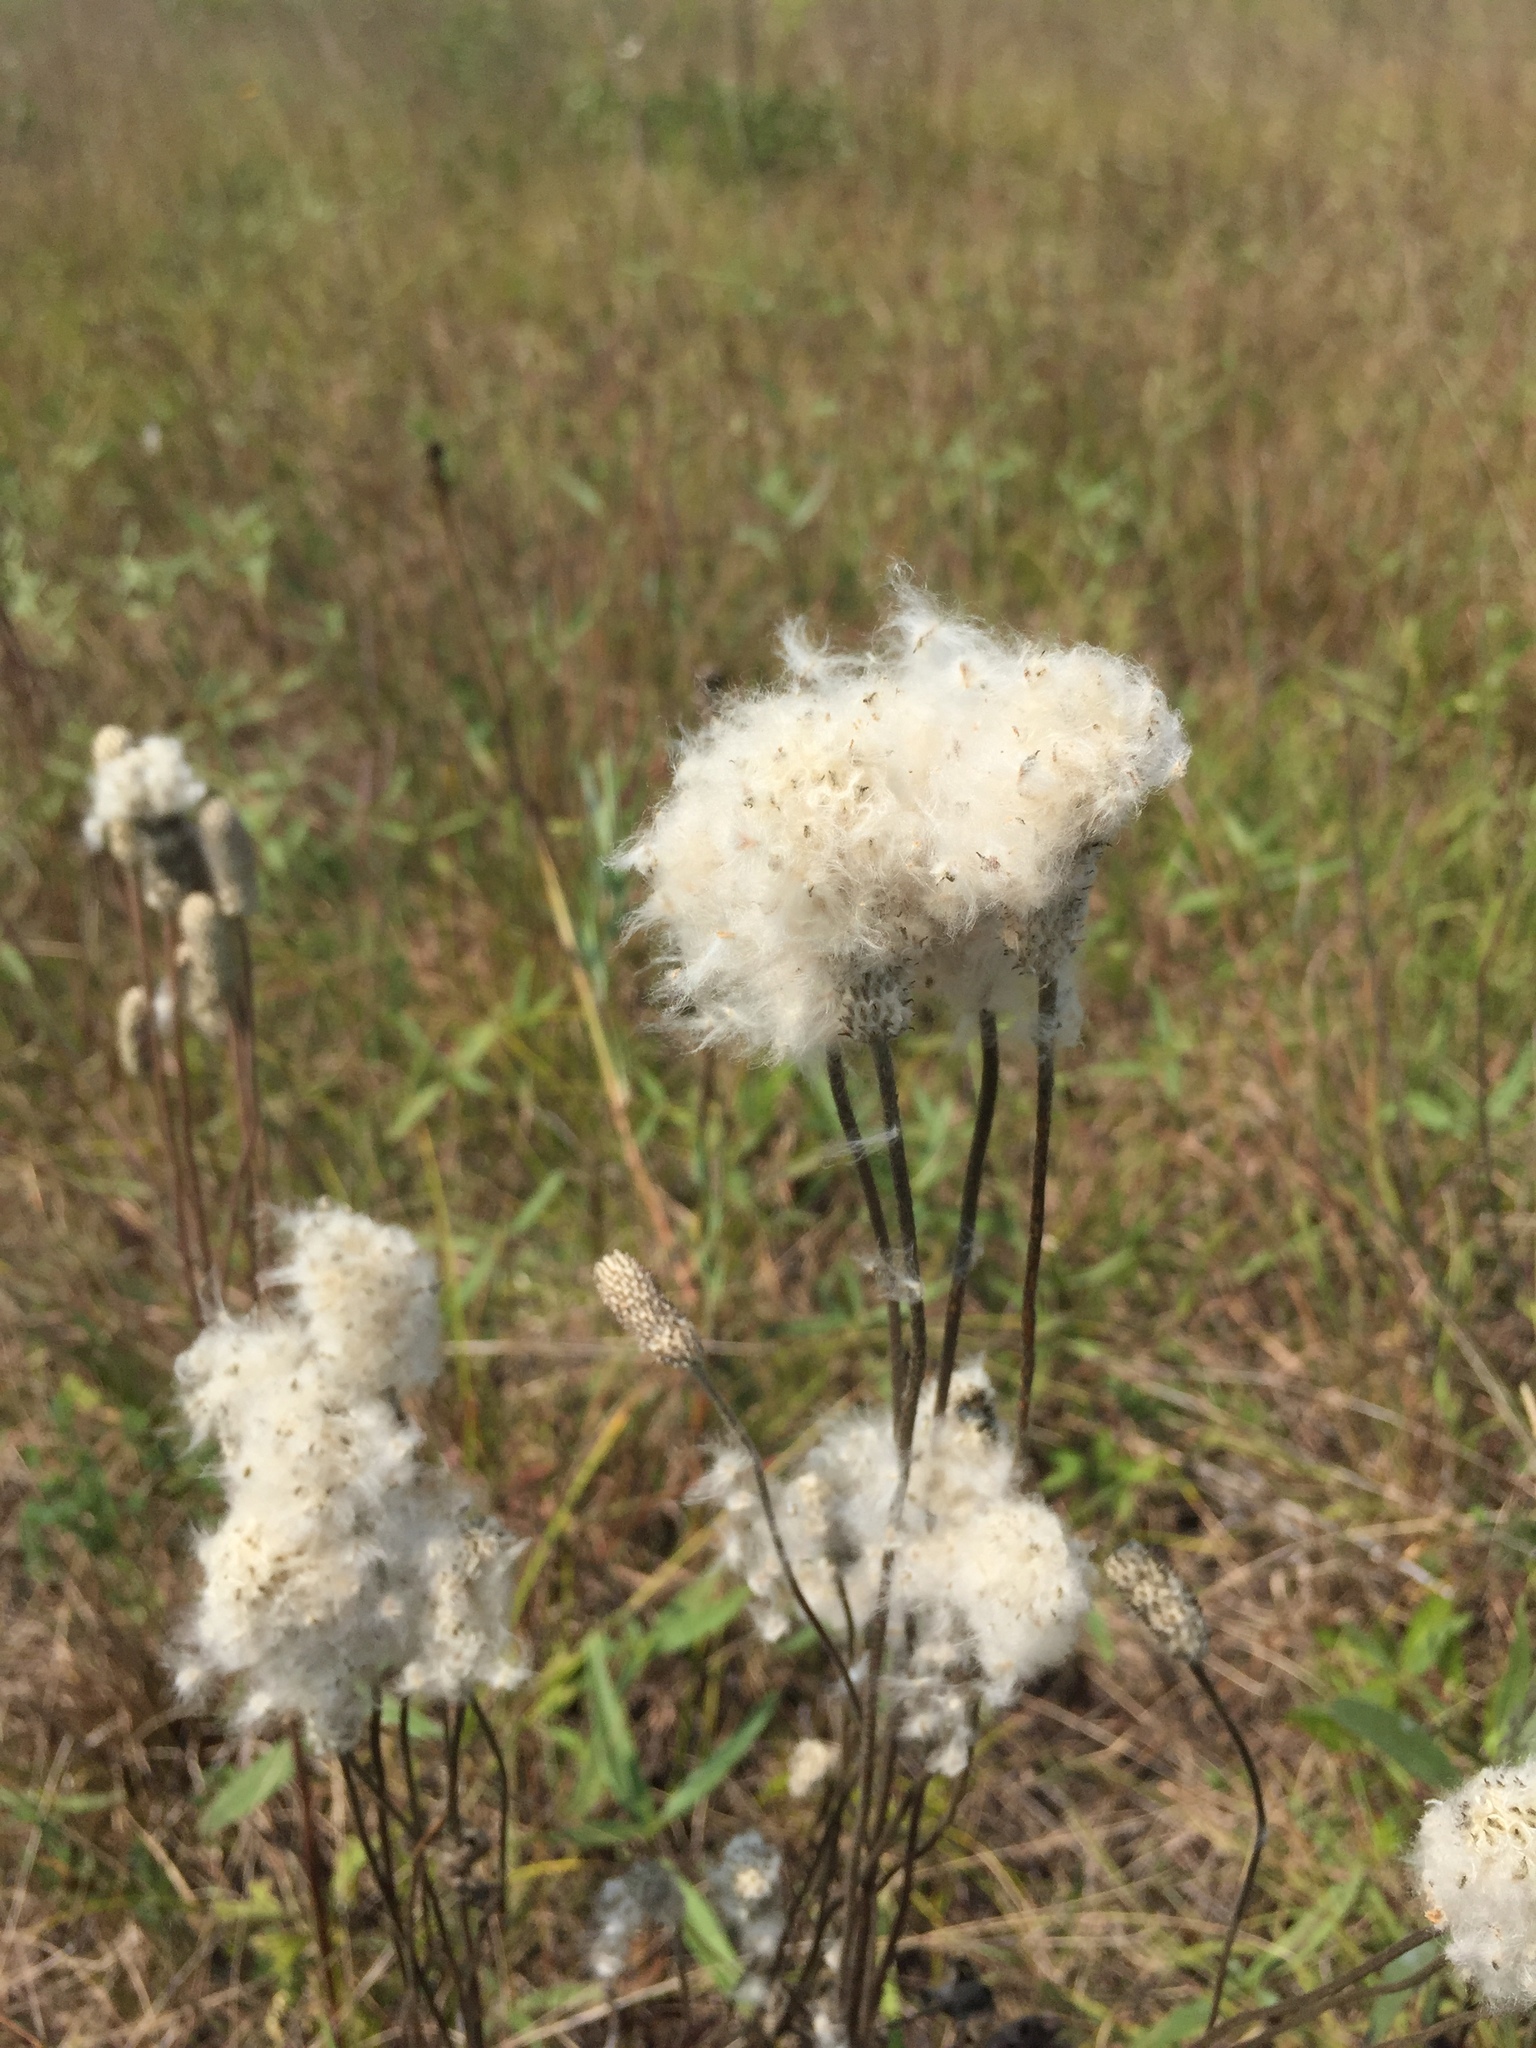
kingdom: Plantae
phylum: Tracheophyta
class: Magnoliopsida
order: Ranunculales
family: Ranunculaceae
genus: Anemone
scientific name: Anemone cylindrica
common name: Candle anemone
